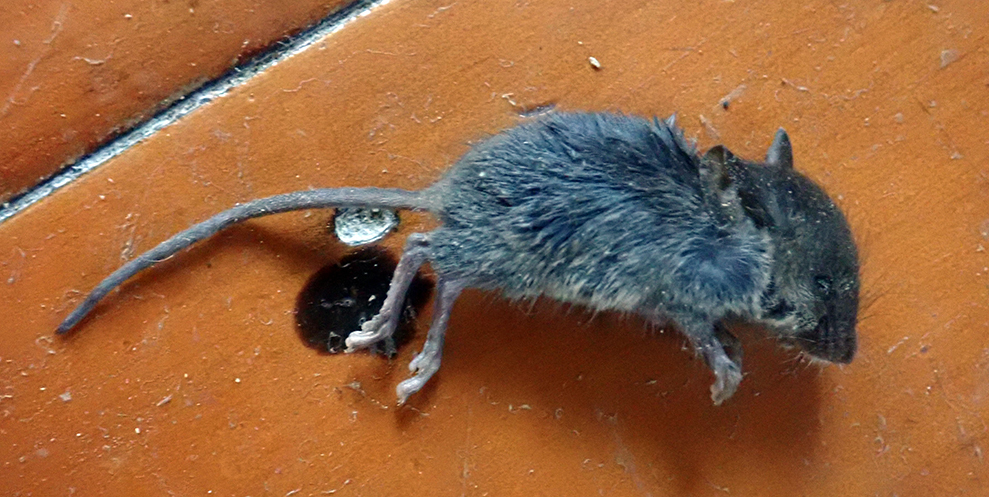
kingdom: Animalia
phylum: Chordata
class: Mammalia
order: Rodentia
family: Muridae
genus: Mus
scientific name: Mus musculus
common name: House mouse
